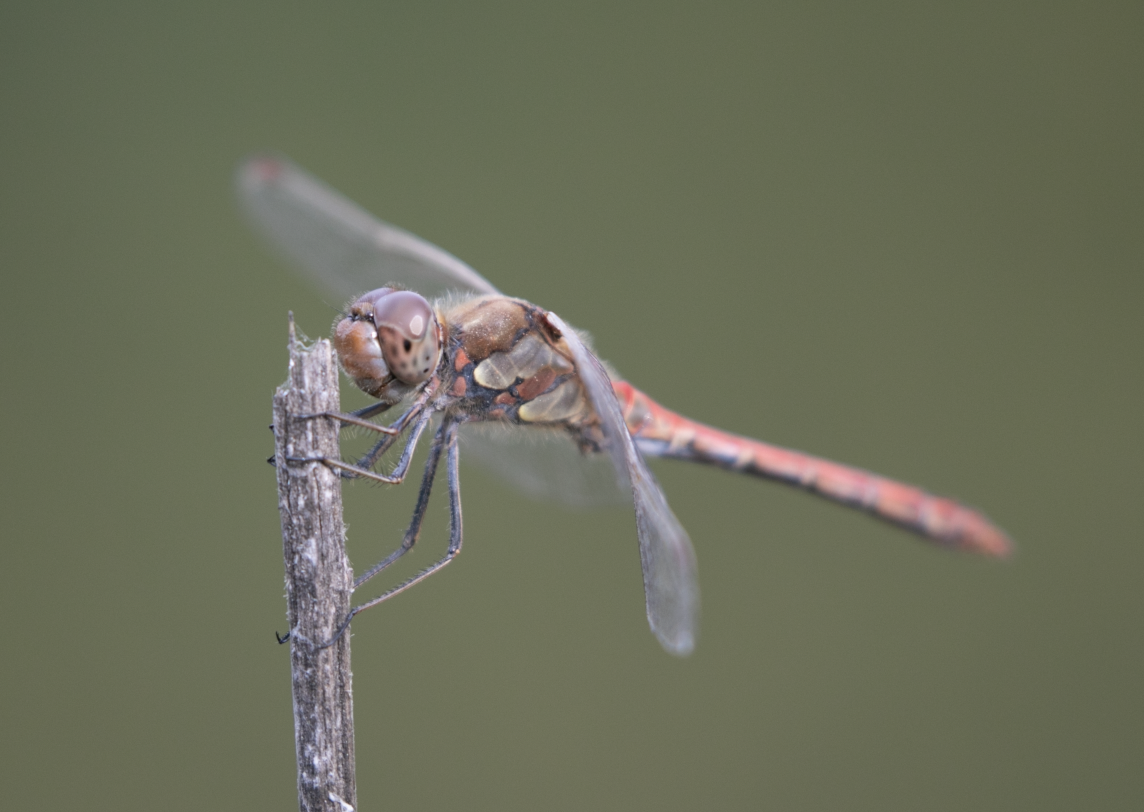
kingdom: Animalia
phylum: Arthropoda
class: Insecta
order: Odonata
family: Libellulidae
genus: Sympetrum
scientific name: Sympetrum striolatum
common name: Common darter
